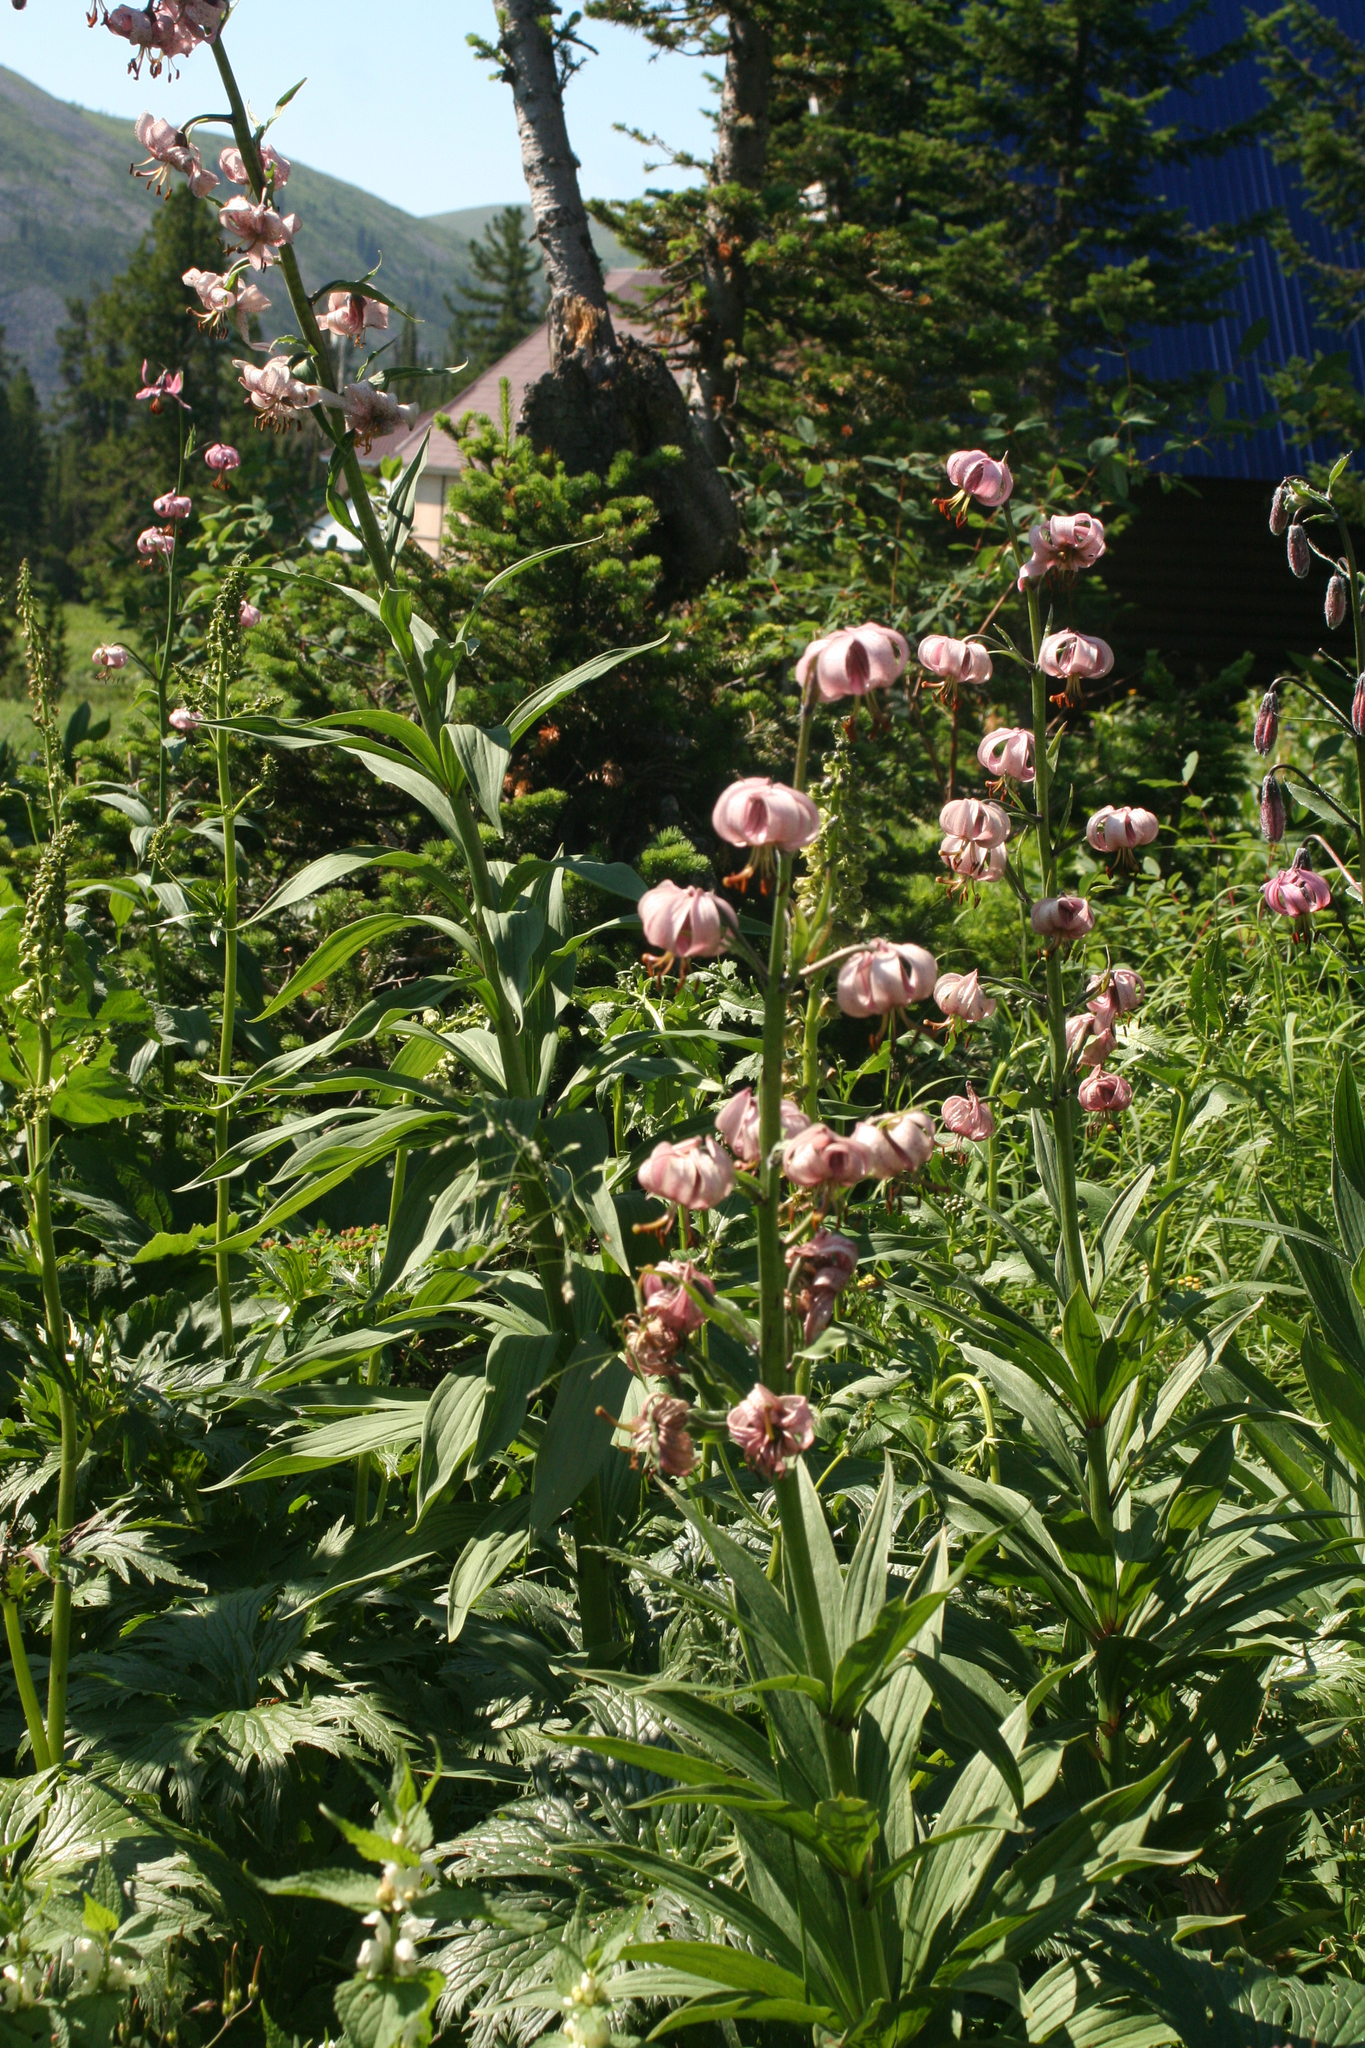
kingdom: Plantae
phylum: Tracheophyta
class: Liliopsida
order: Liliales
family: Liliaceae
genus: Lilium
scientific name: Lilium martagon
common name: Martagon lily
